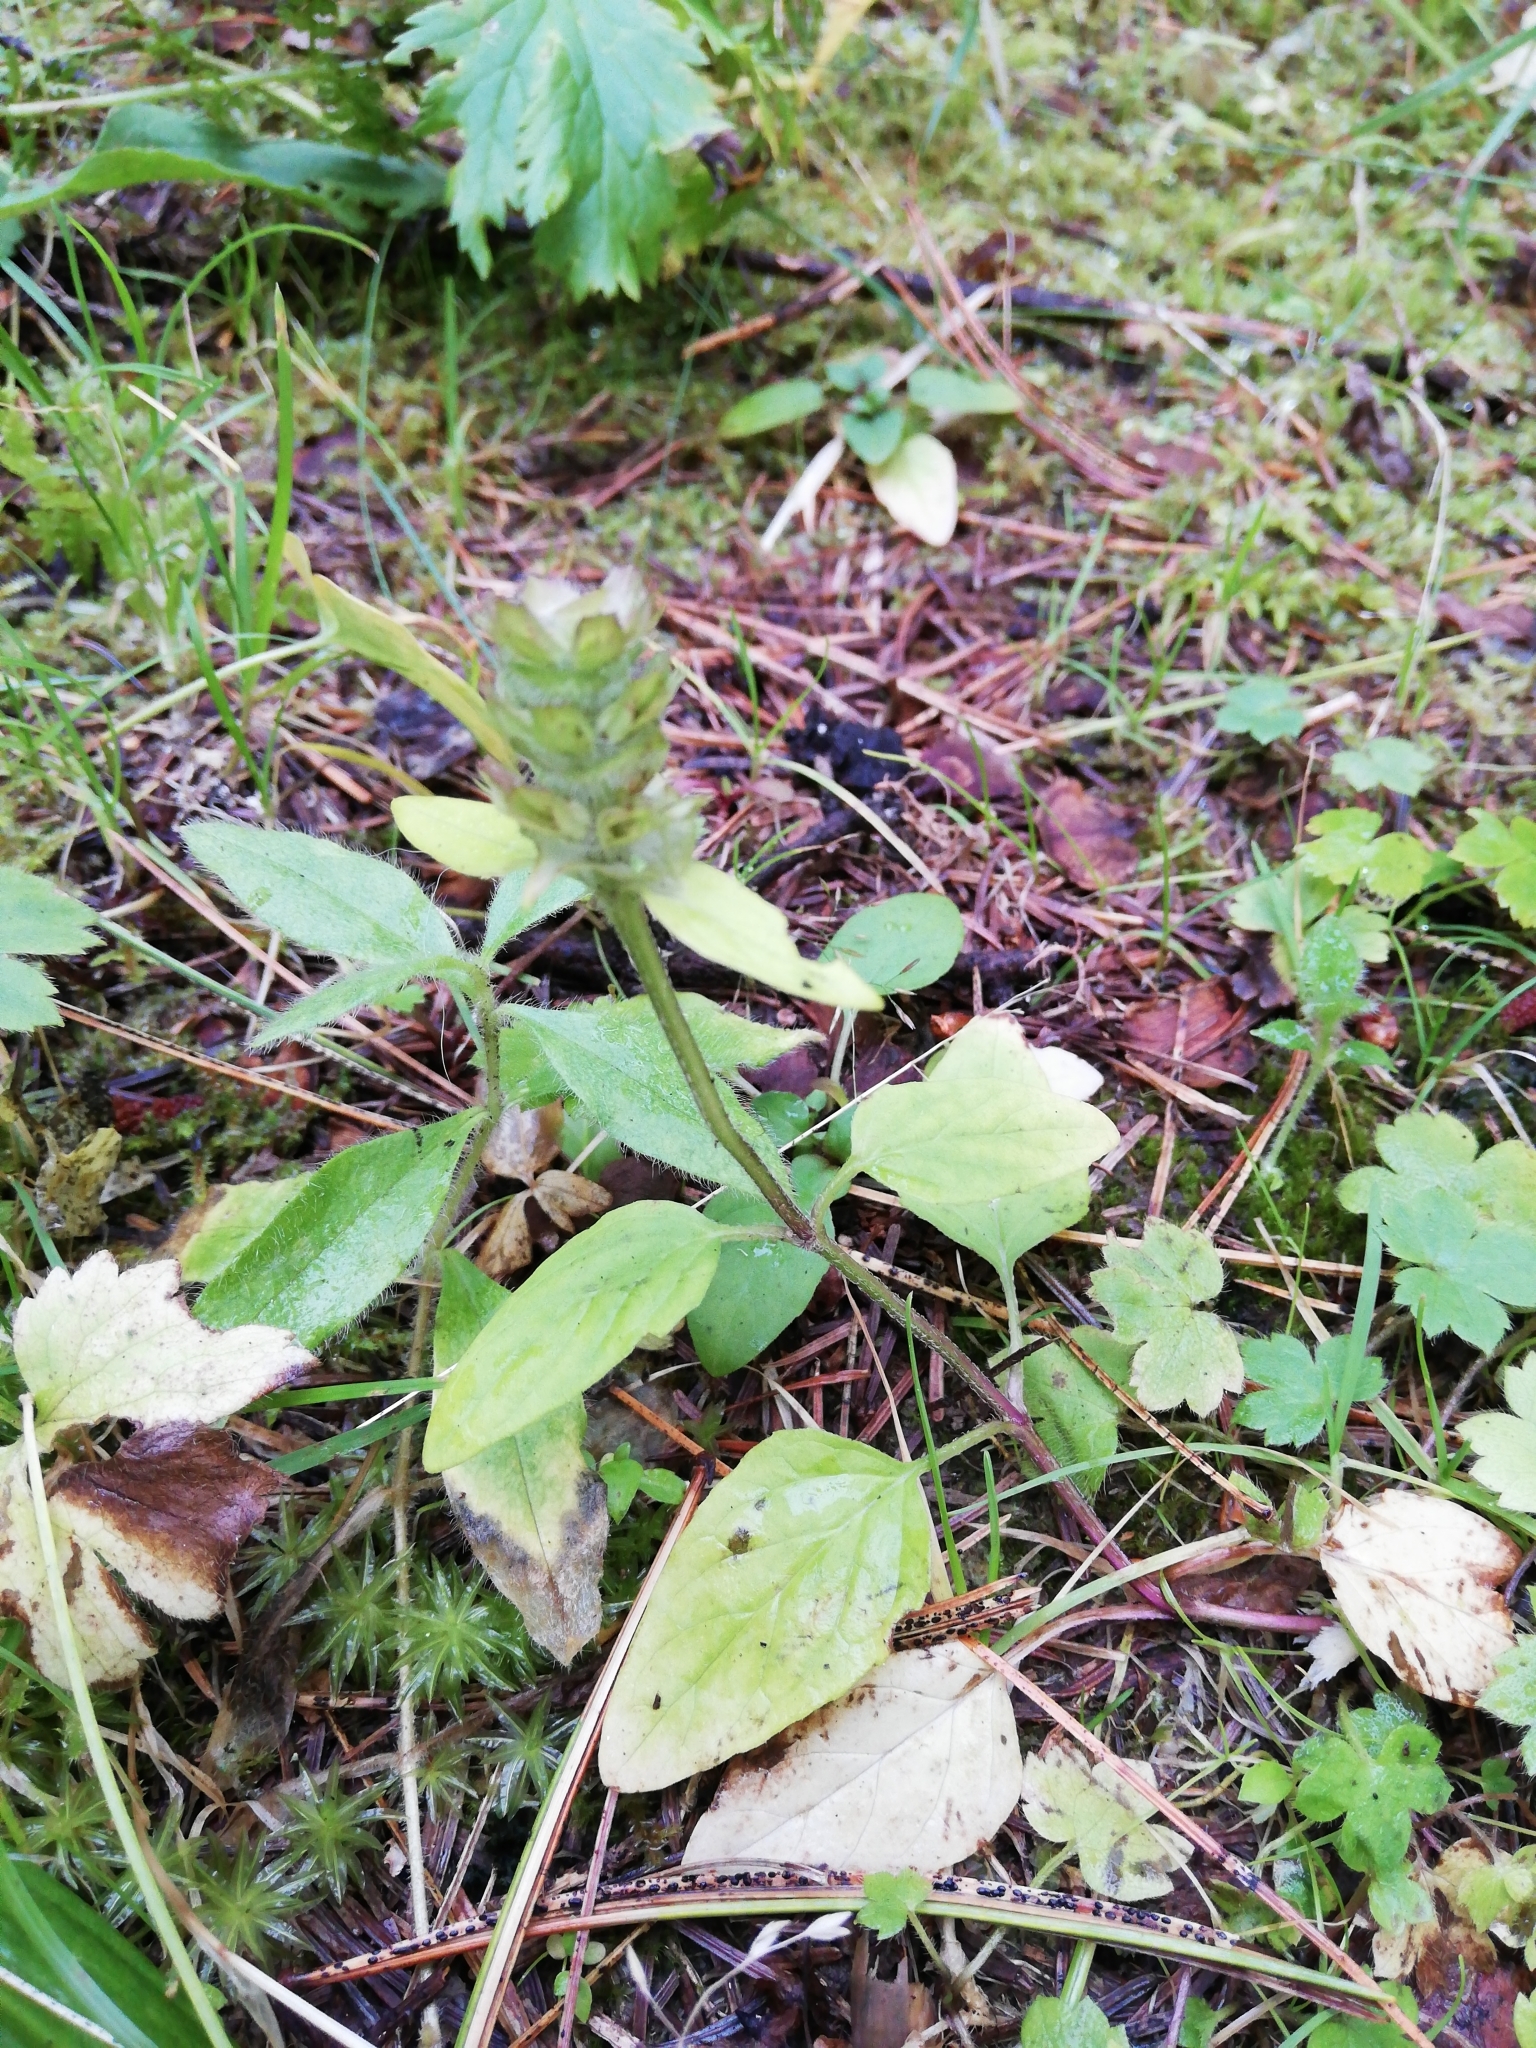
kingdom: Plantae
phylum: Tracheophyta
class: Magnoliopsida
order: Lamiales
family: Lamiaceae
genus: Prunella
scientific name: Prunella vulgaris
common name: Heal-all
